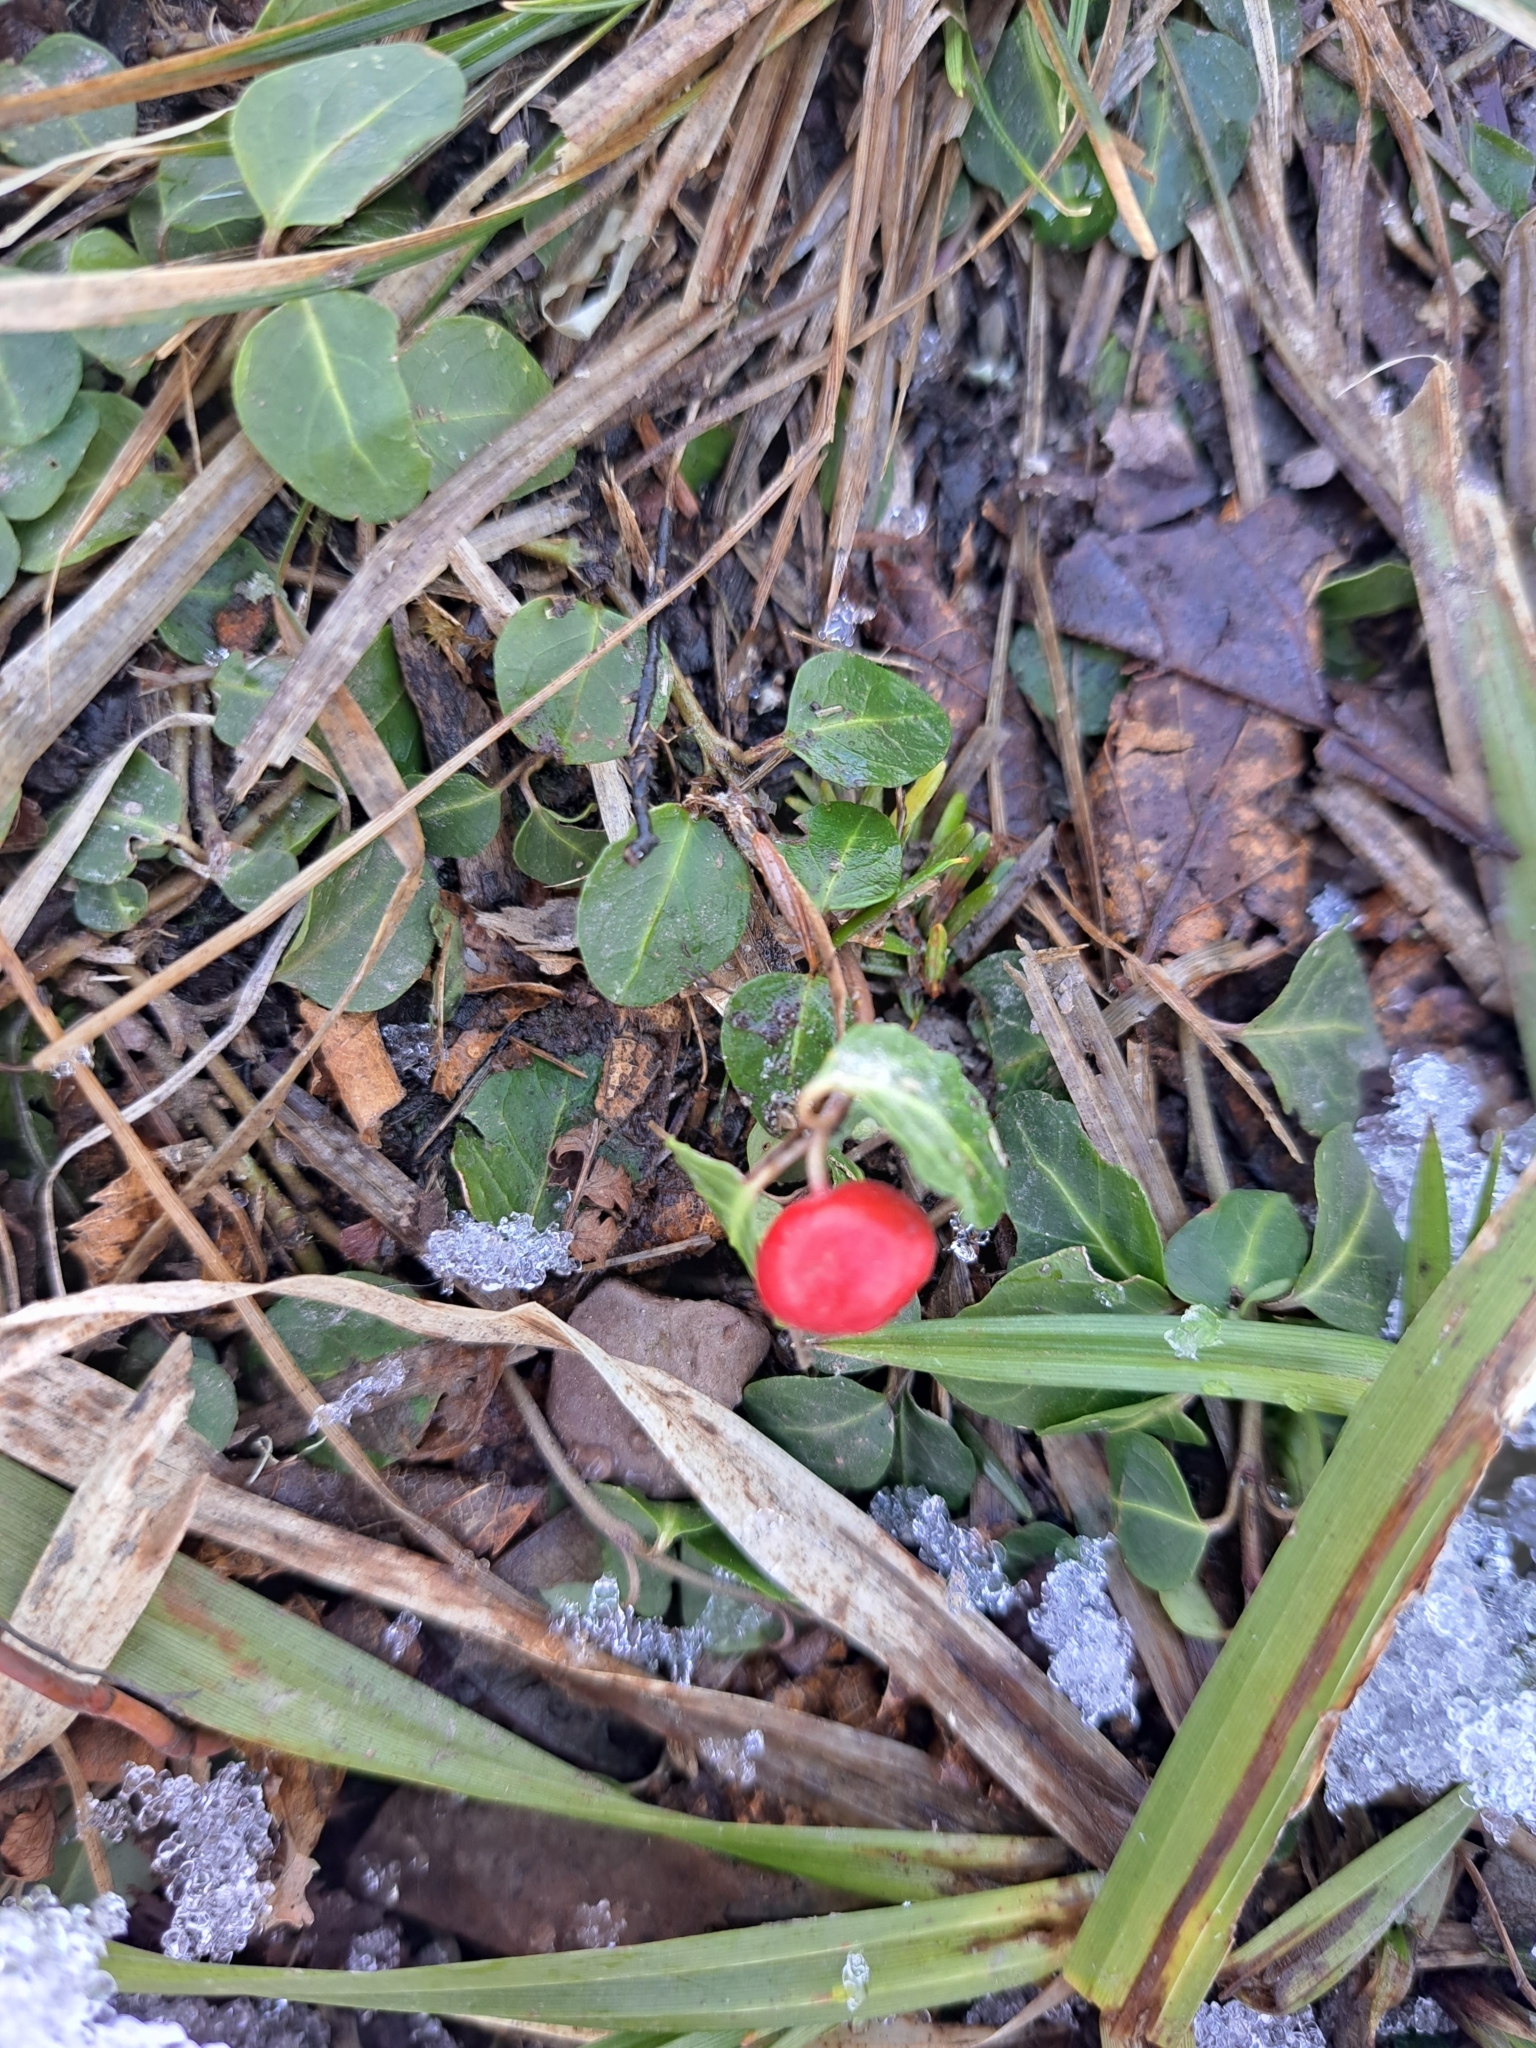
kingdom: Plantae
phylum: Tracheophyta
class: Magnoliopsida
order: Gentianales
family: Rubiaceae
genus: Mitchella
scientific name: Mitchella repens
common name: Partridge-berry
